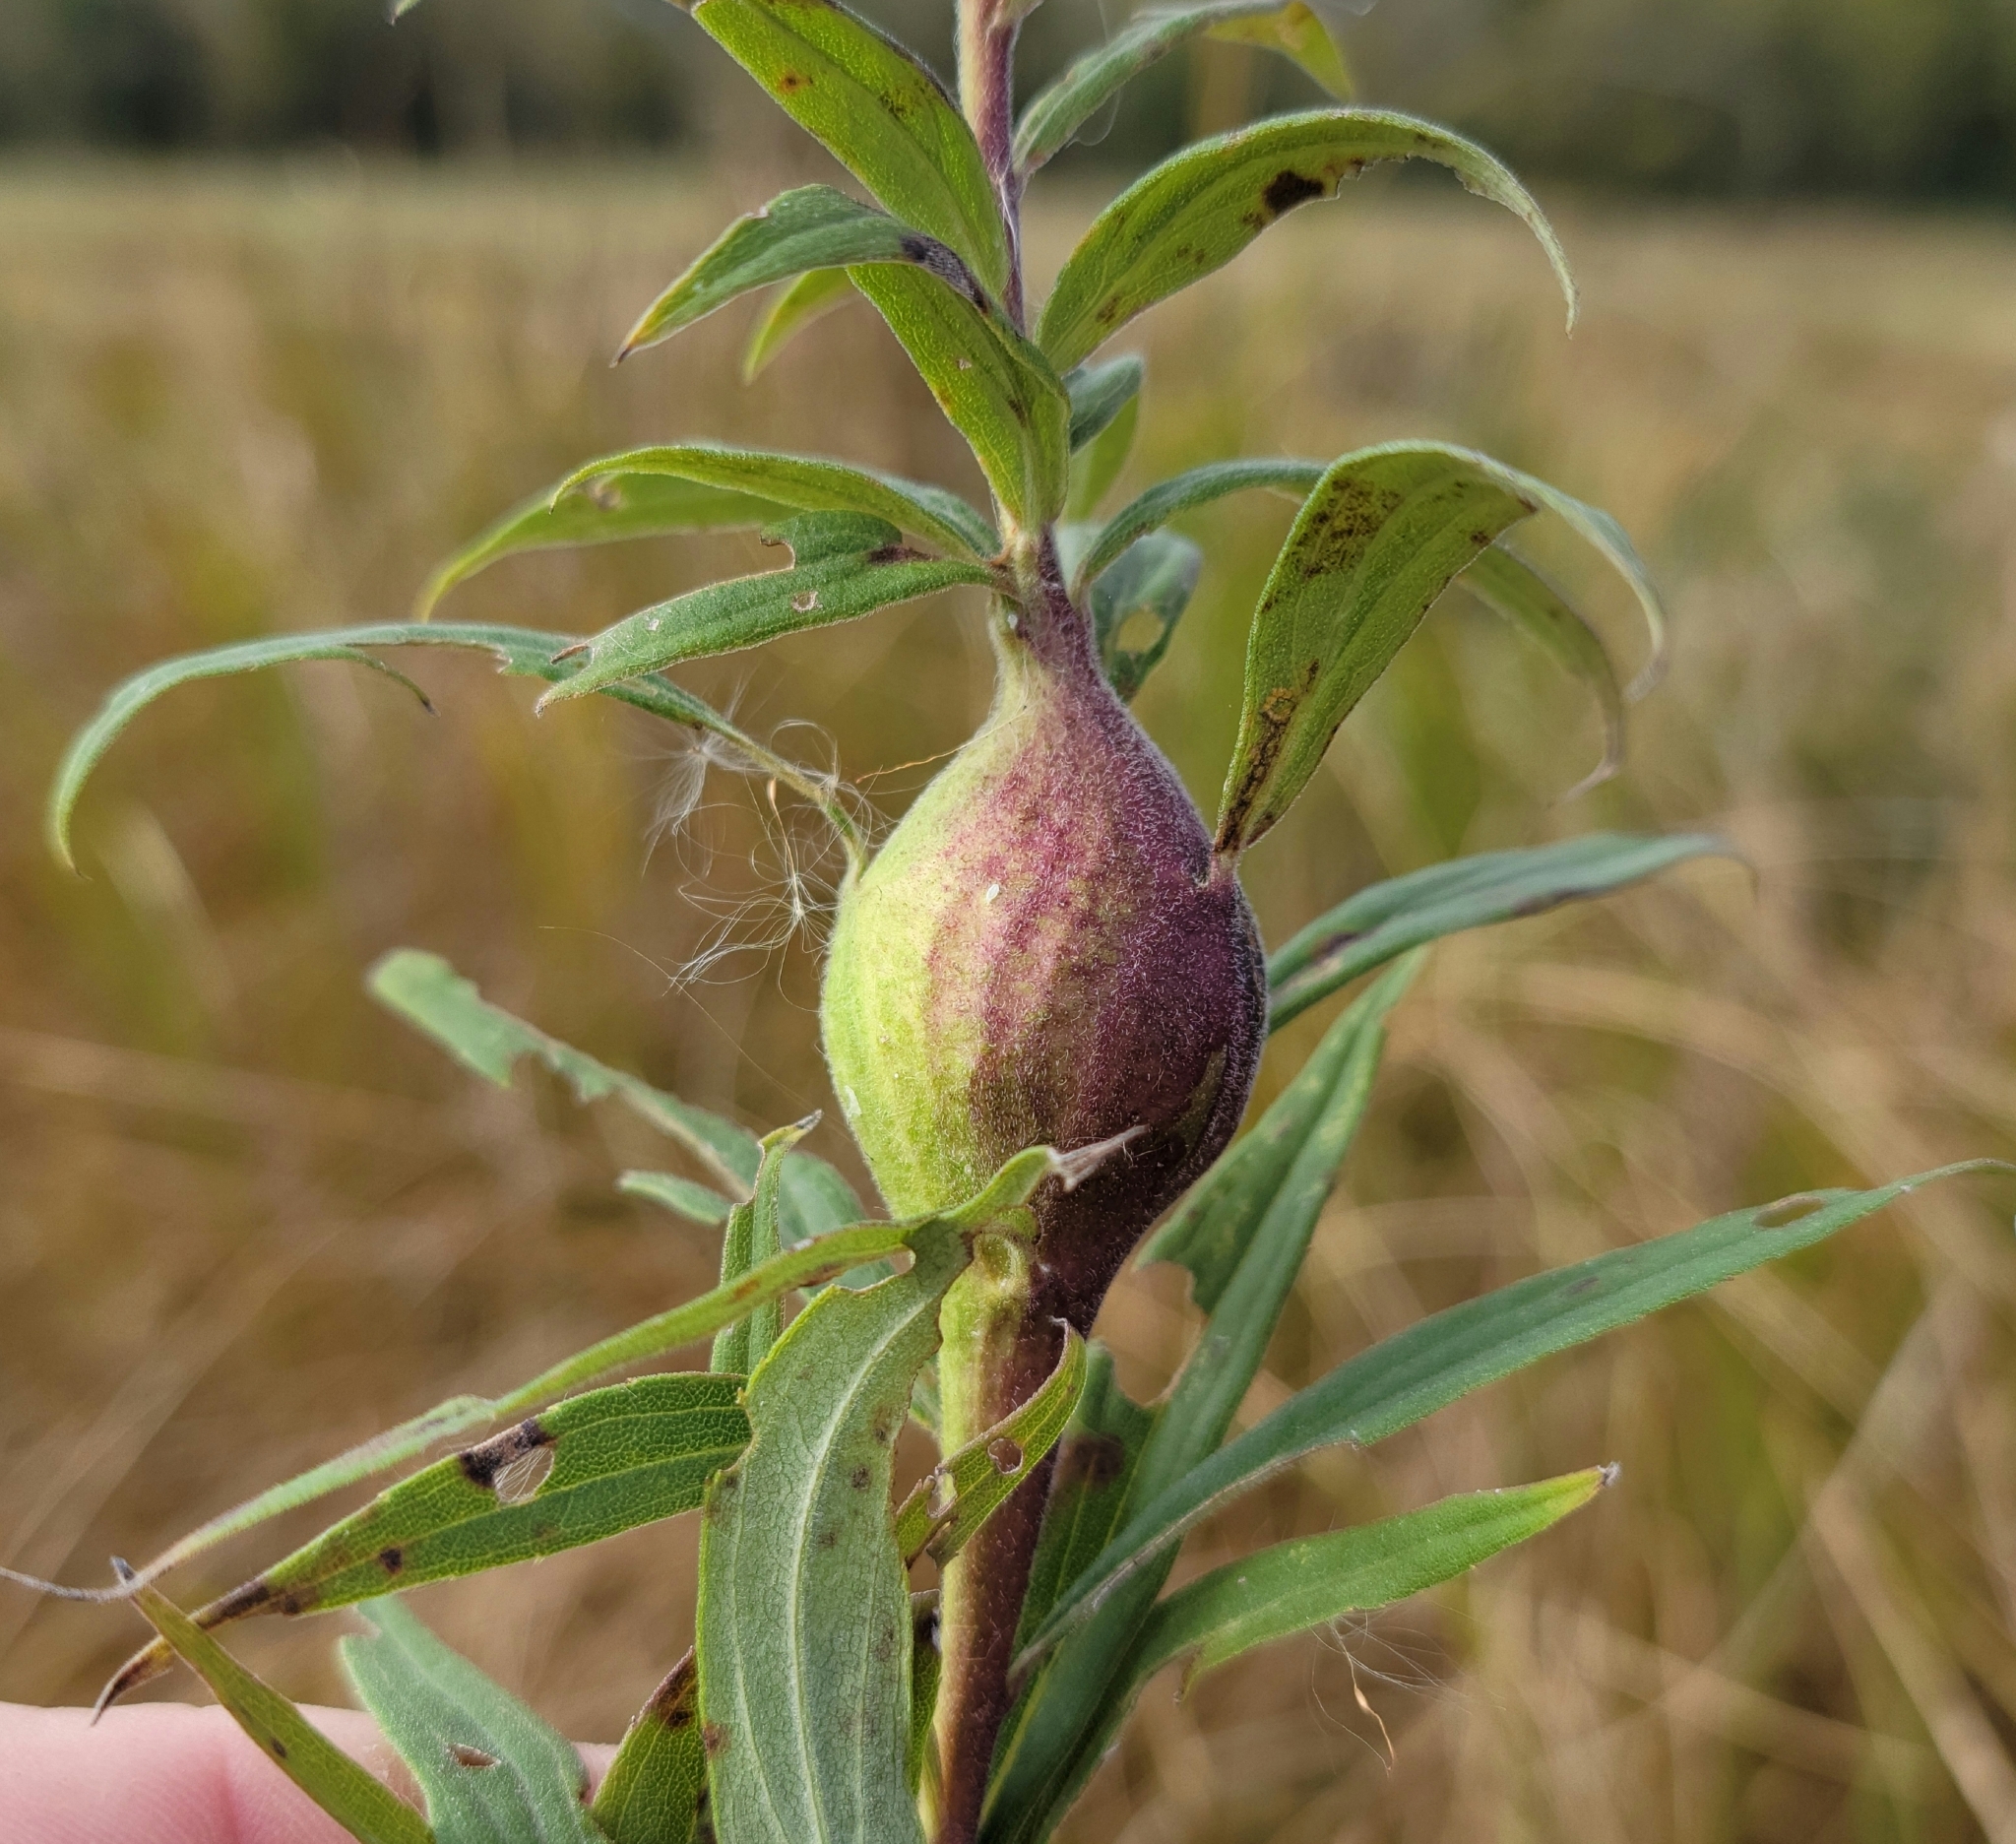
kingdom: Animalia
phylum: Arthropoda
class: Insecta
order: Diptera
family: Tephritidae
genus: Eurosta
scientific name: Eurosta solidaginis
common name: Goldenrod gall fly
